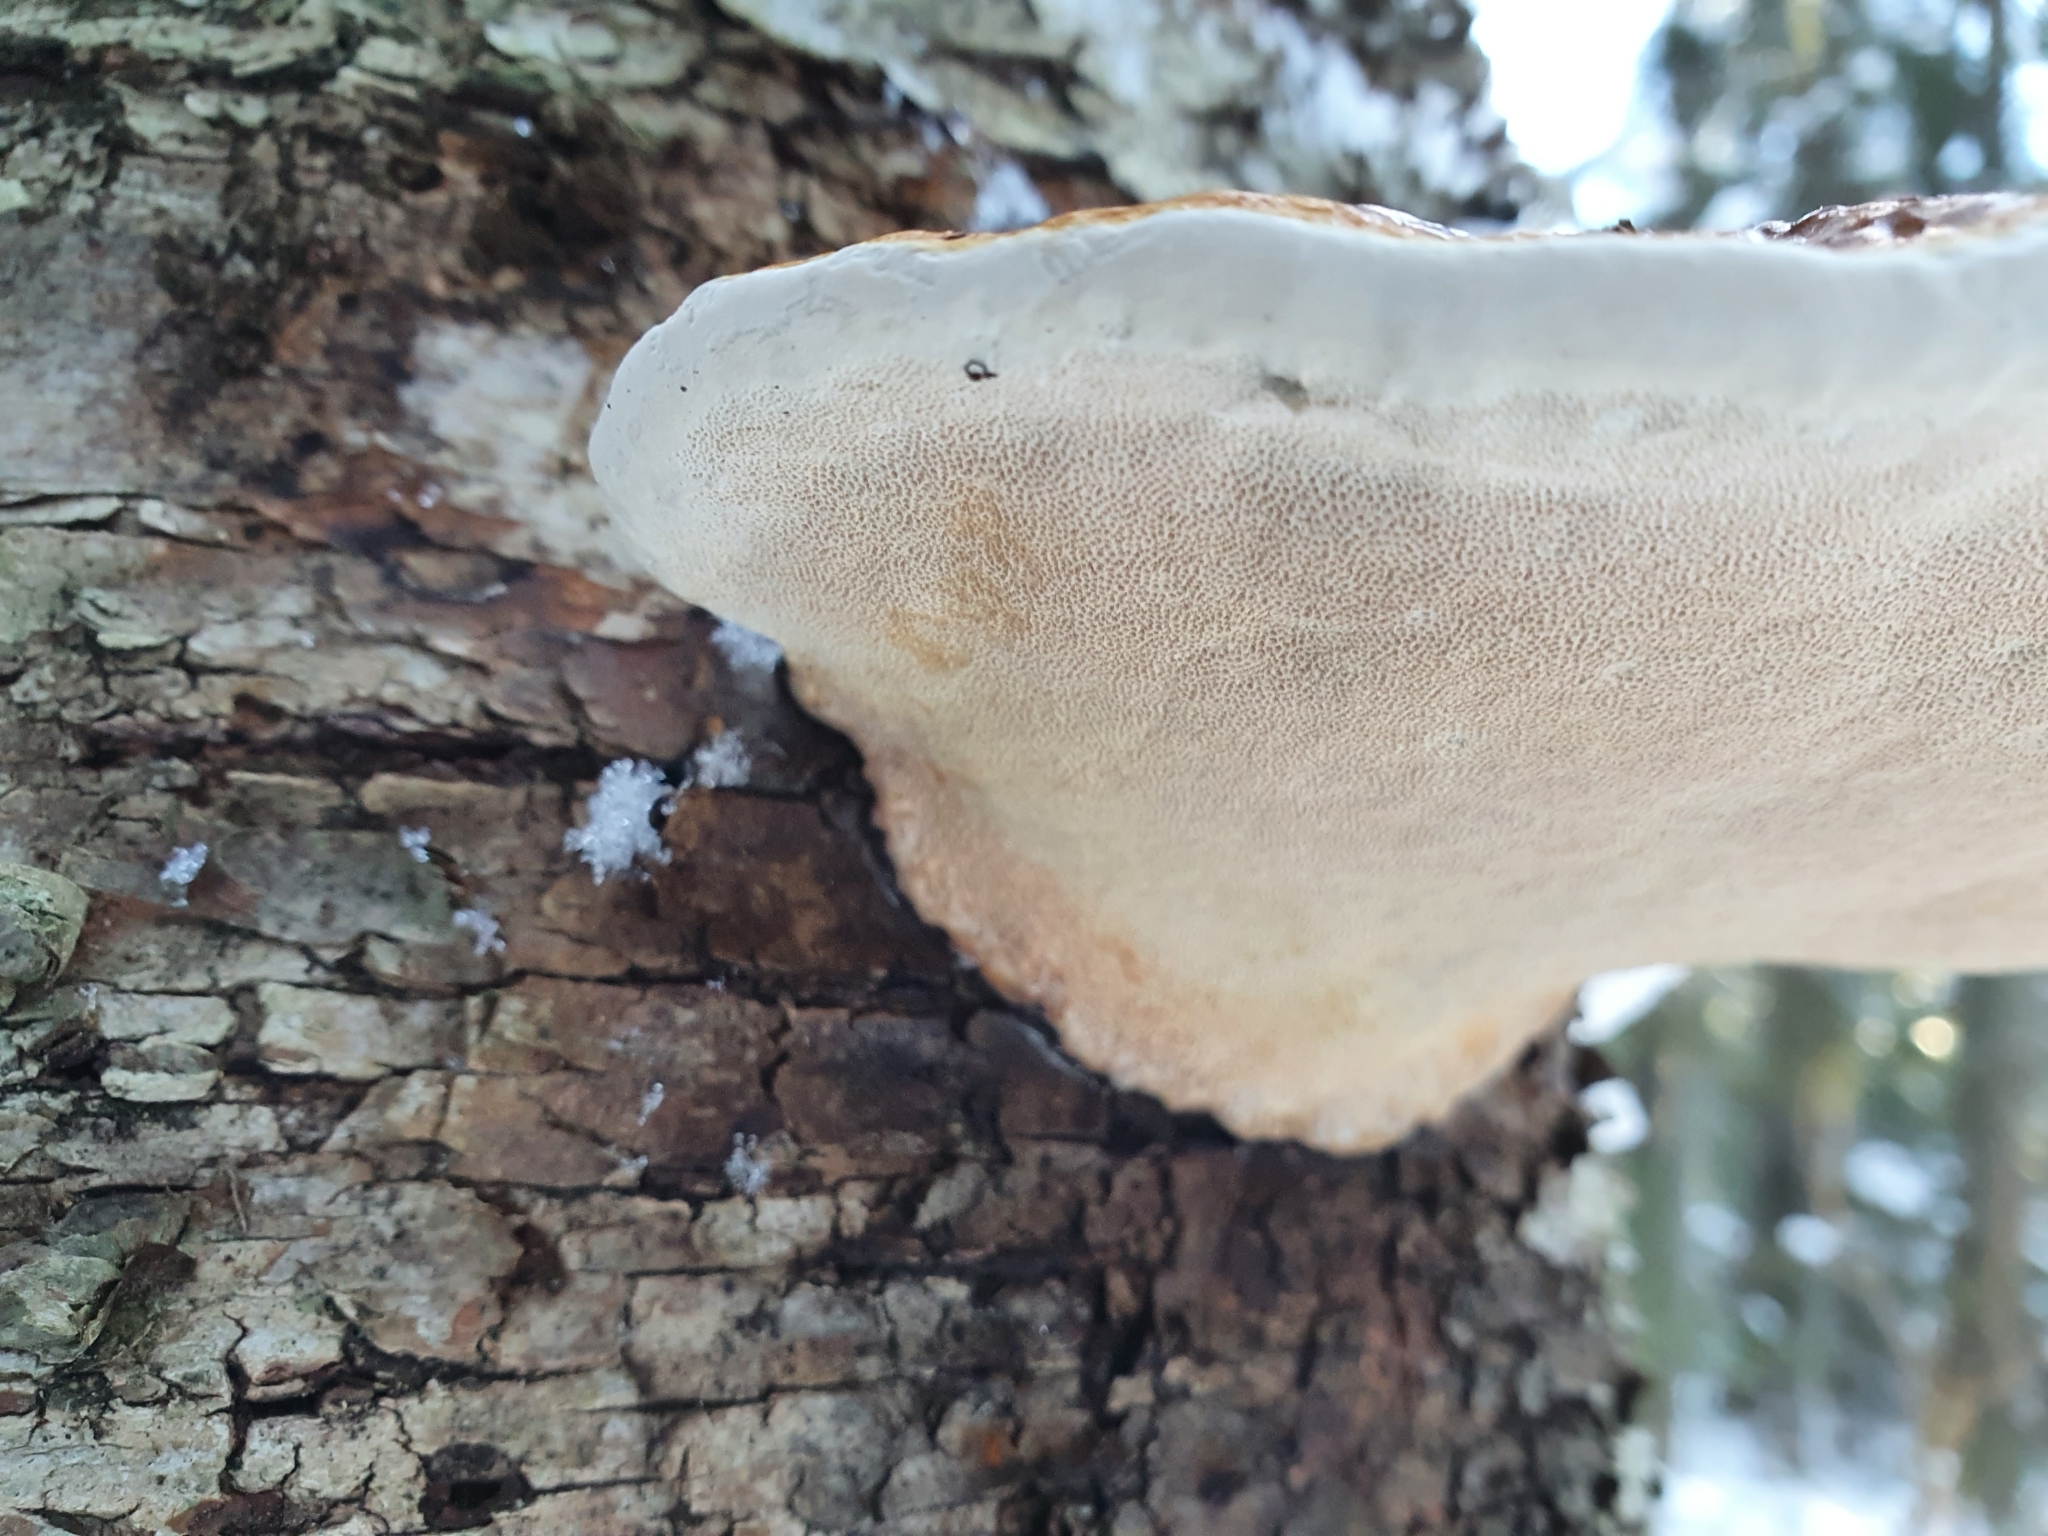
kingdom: Fungi
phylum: Basidiomycota
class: Agaricomycetes
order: Polyporales
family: Fomitopsidaceae
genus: Fomitopsis
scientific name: Fomitopsis pinicola
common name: Red-belted bracket
